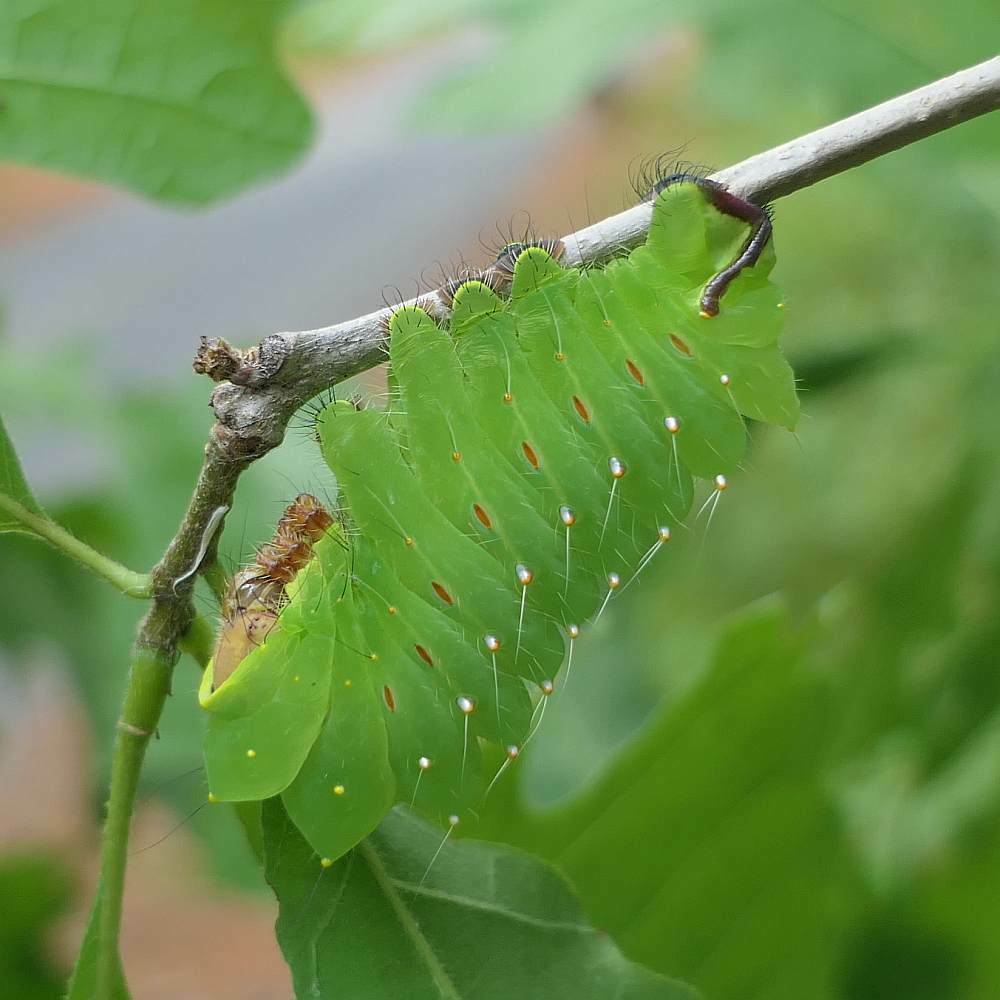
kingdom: Animalia
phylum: Arthropoda
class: Insecta
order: Lepidoptera
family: Saturniidae
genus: Antheraea
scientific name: Antheraea polyphemus
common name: Polyphemus moth
